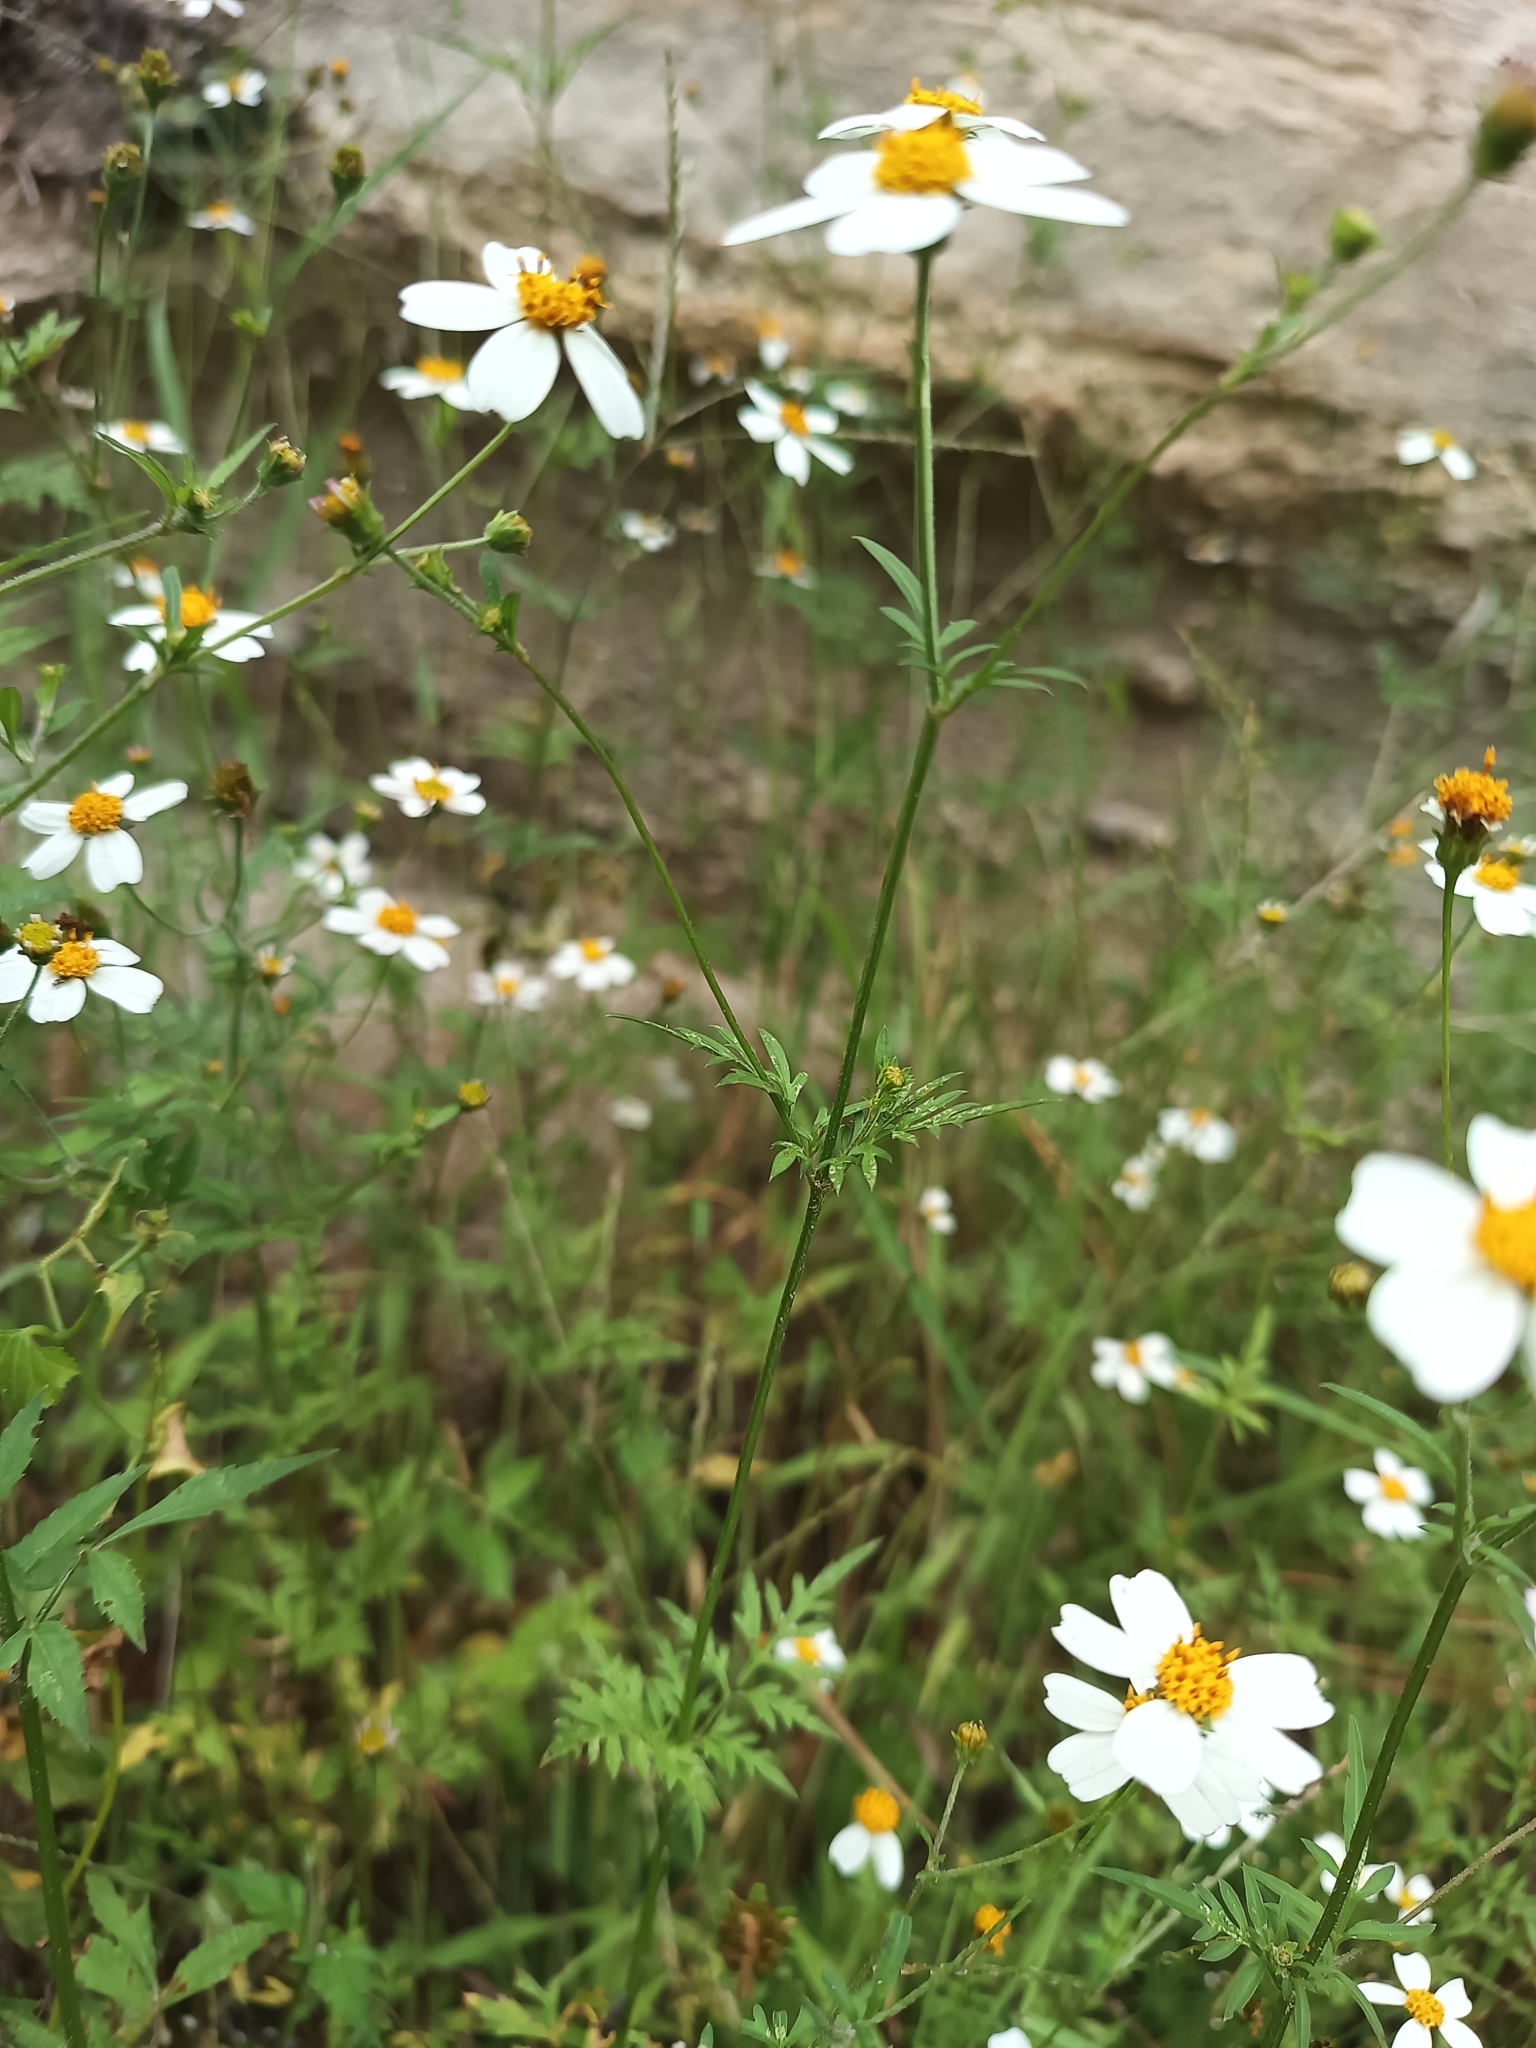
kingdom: Plantae
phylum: Tracheophyta
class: Magnoliopsida
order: Asterales
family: Asteraceae
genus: Bidens
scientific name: Bidens odorata
